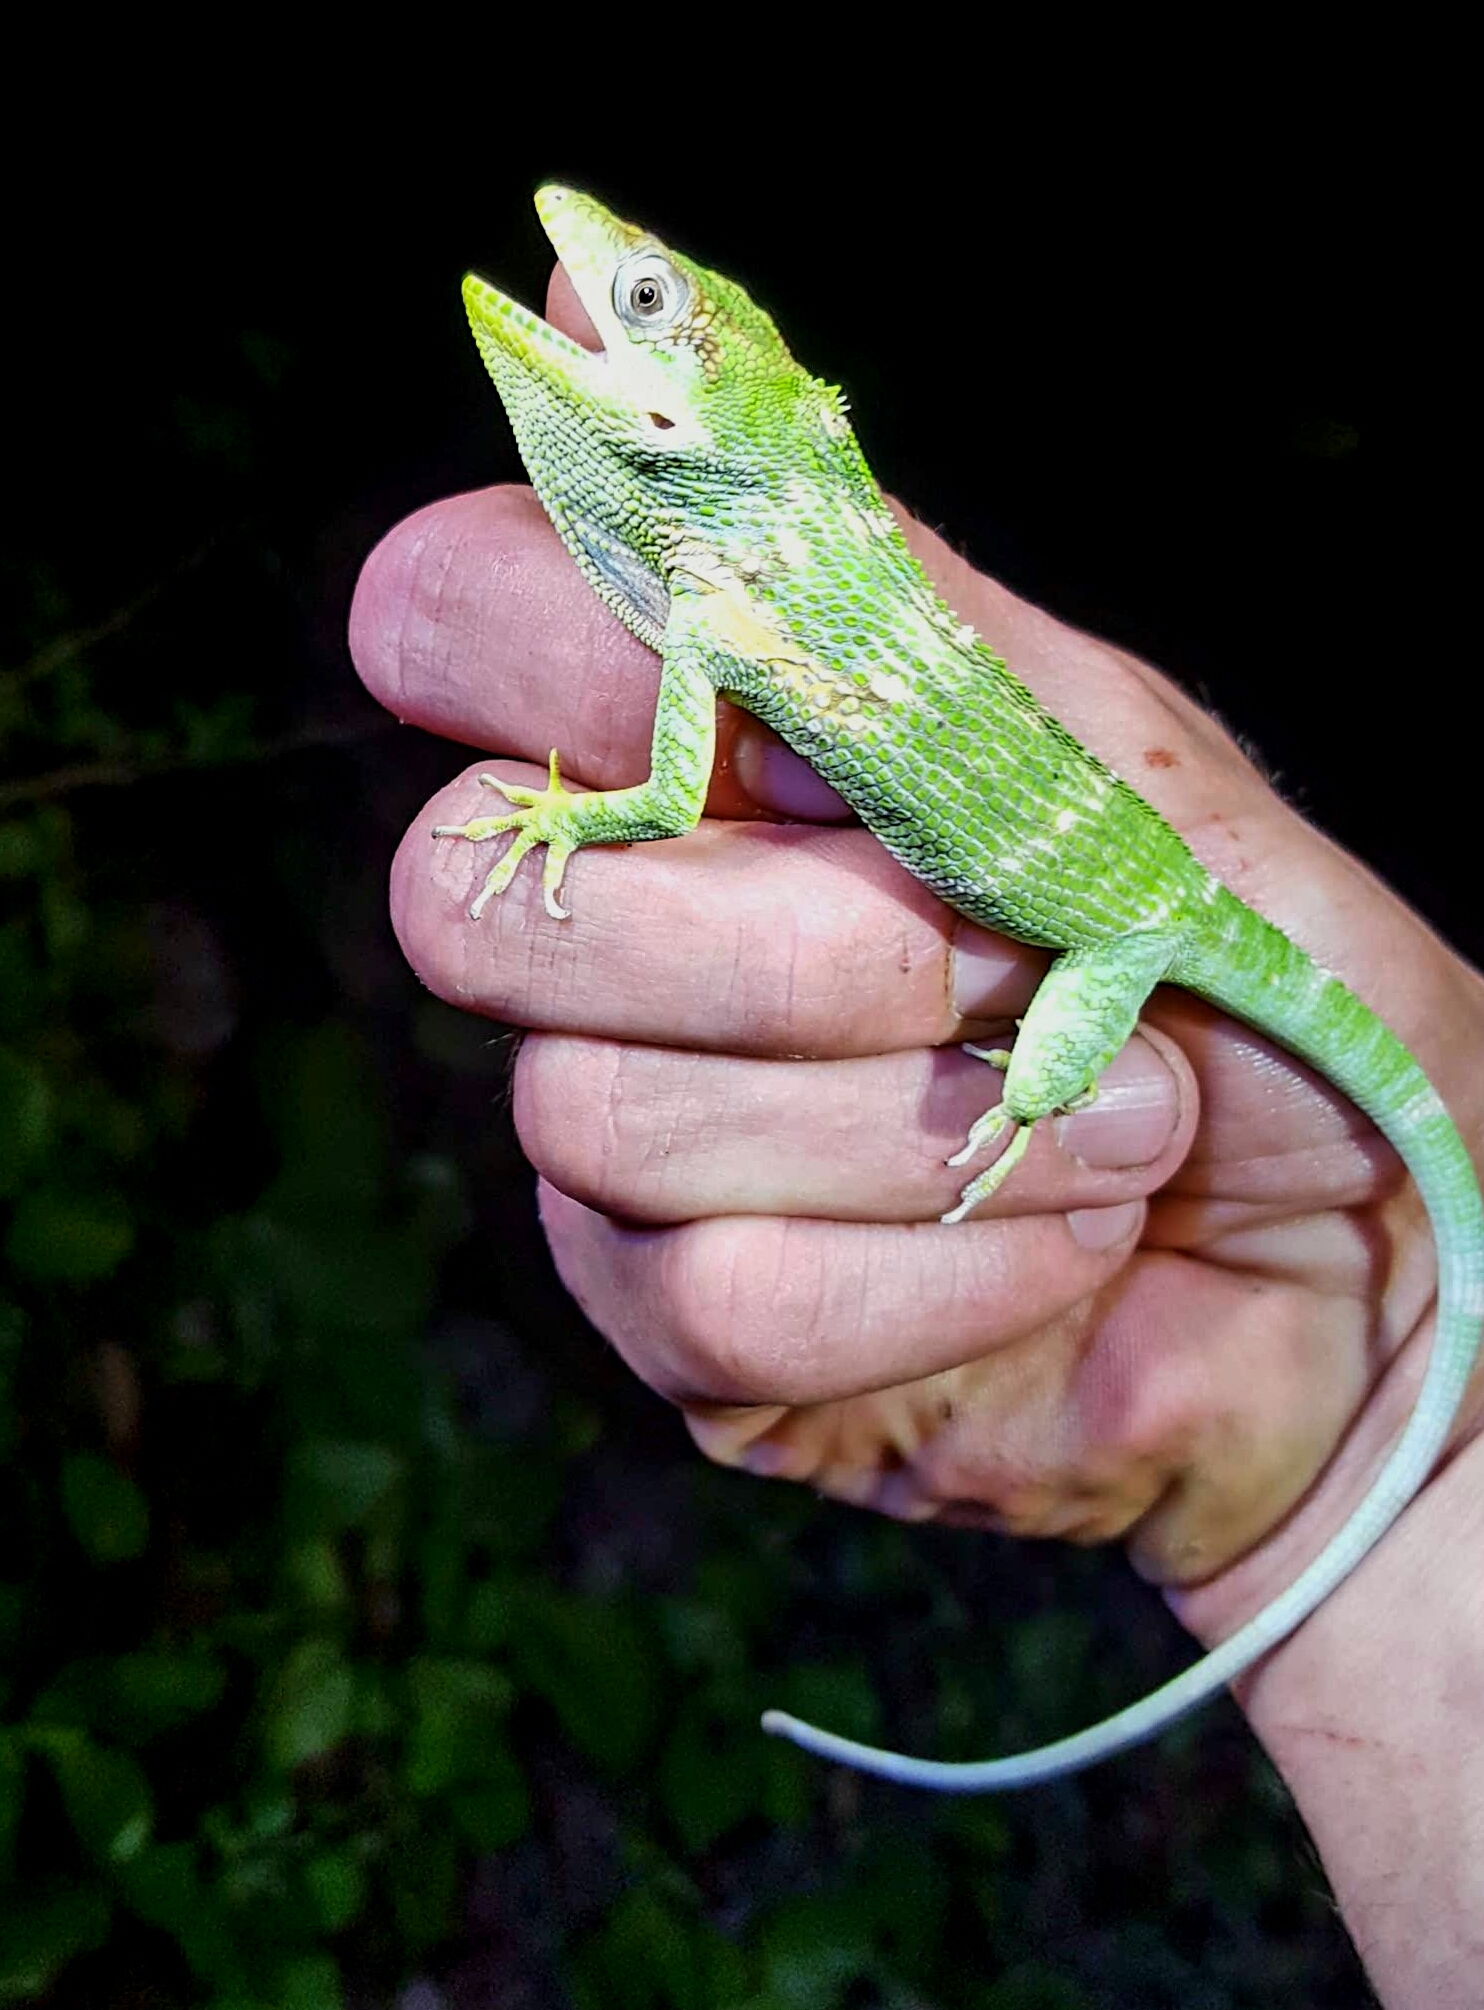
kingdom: Animalia
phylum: Chordata
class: Squamata
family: Dactyloidae
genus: Anolis
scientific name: Anolis equestris
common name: Knight anole
